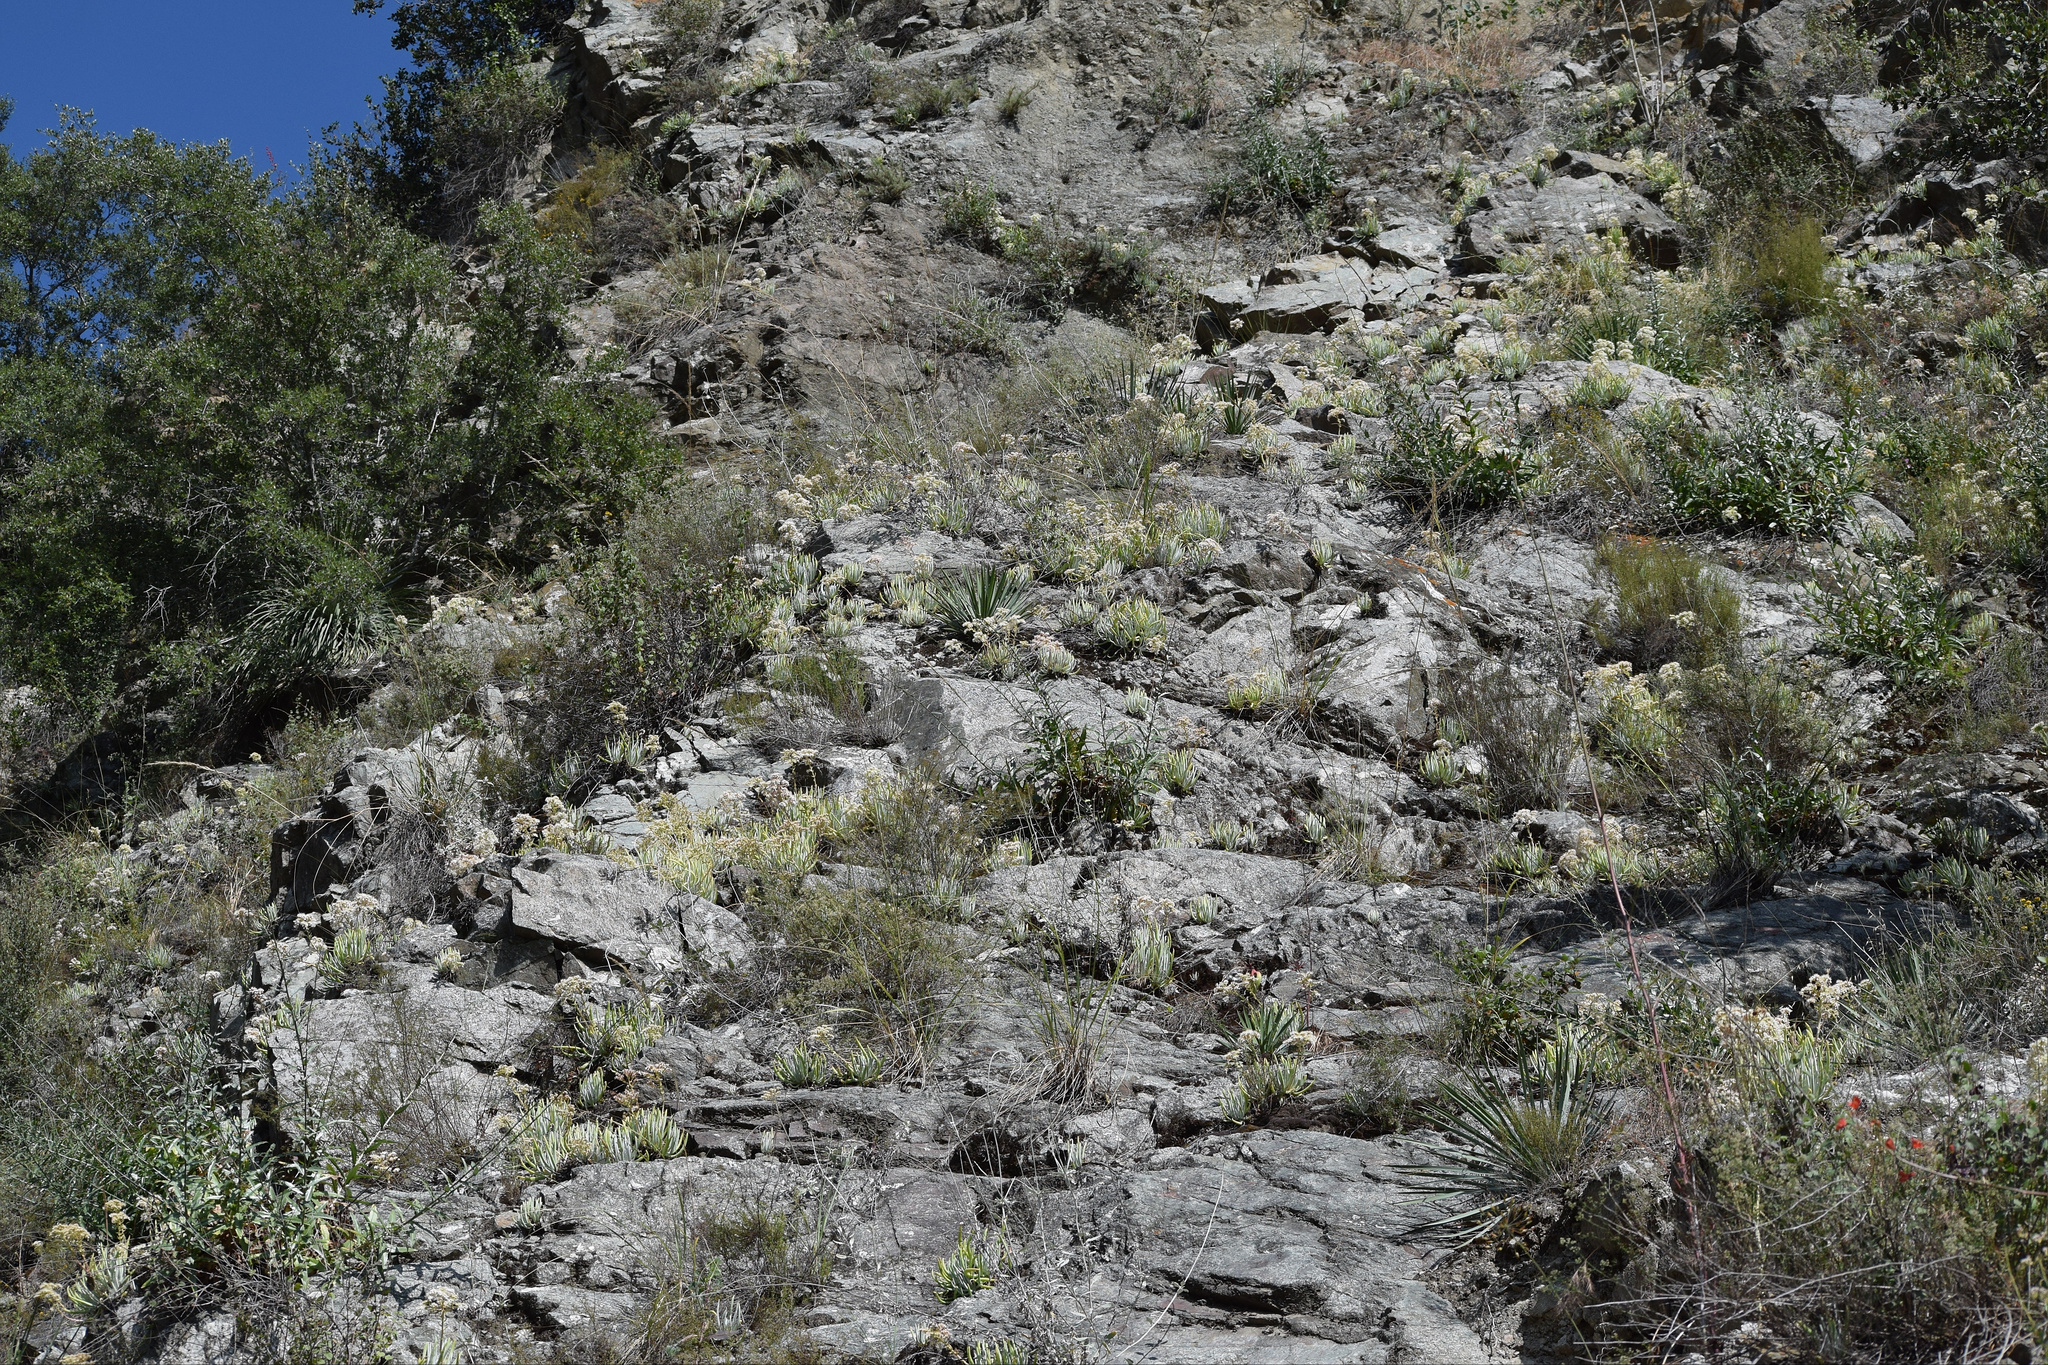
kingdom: Plantae
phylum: Tracheophyta
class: Magnoliopsida
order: Saxifragales
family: Crassulaceae
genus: Dudleya
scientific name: Dudleya densiflora
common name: San gabriel mountains dudleya
